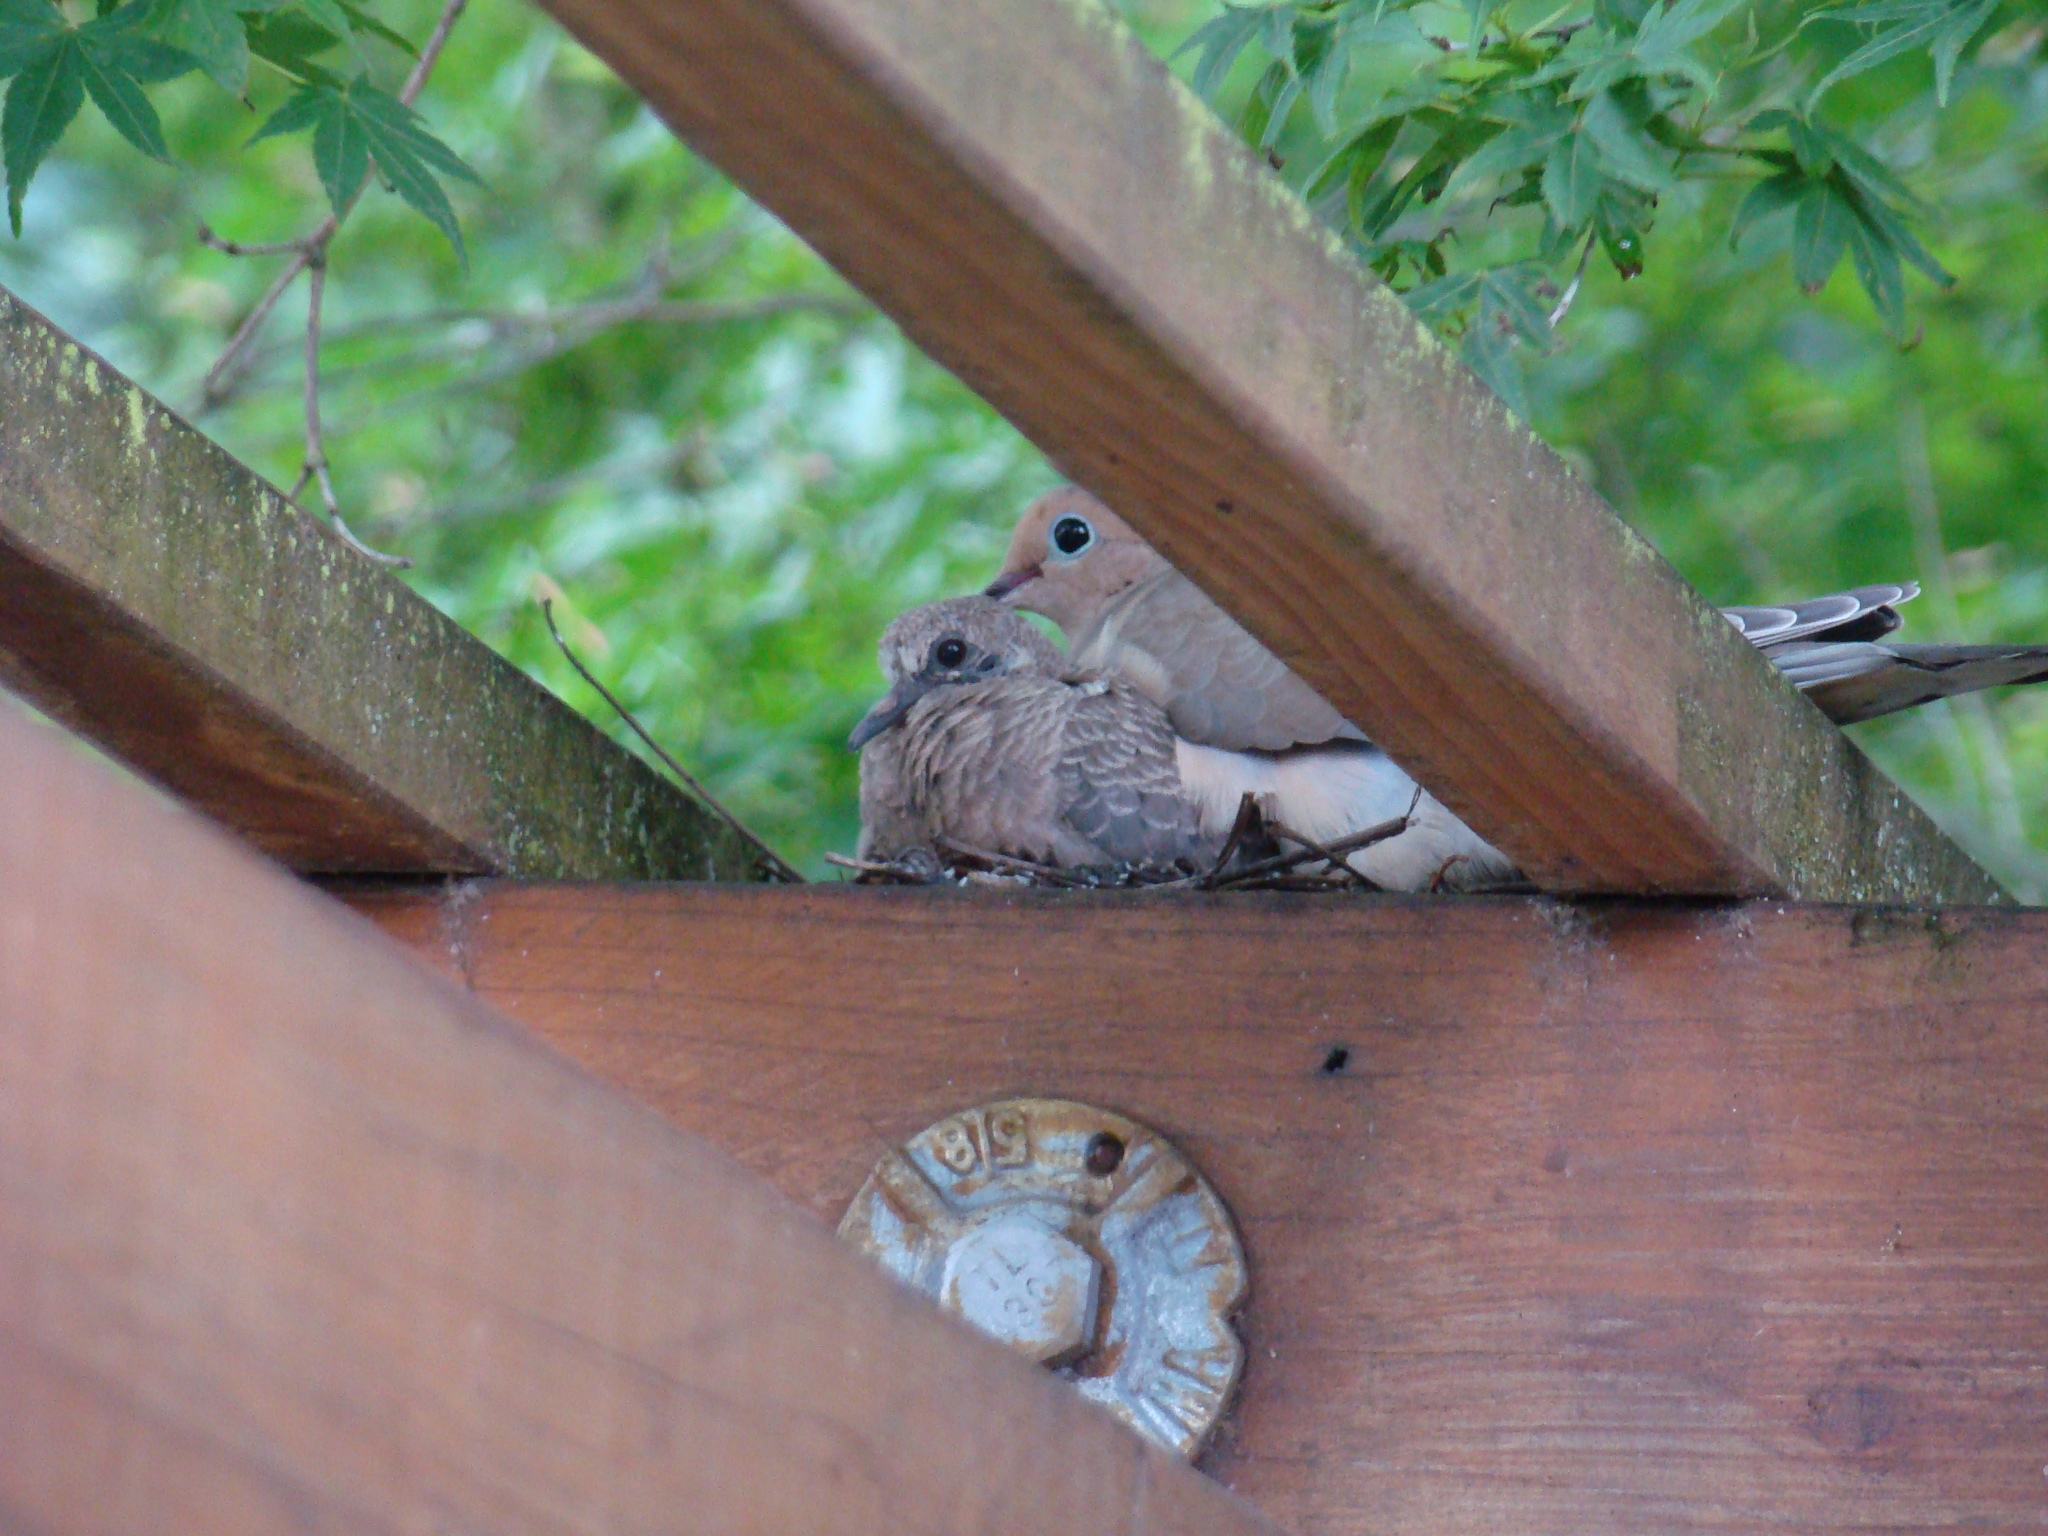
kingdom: Animalia
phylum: Chordata
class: Aves
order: Columbiformes
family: Columbidae
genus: Zenaida
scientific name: Zenaida macroura
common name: Mourning dove
